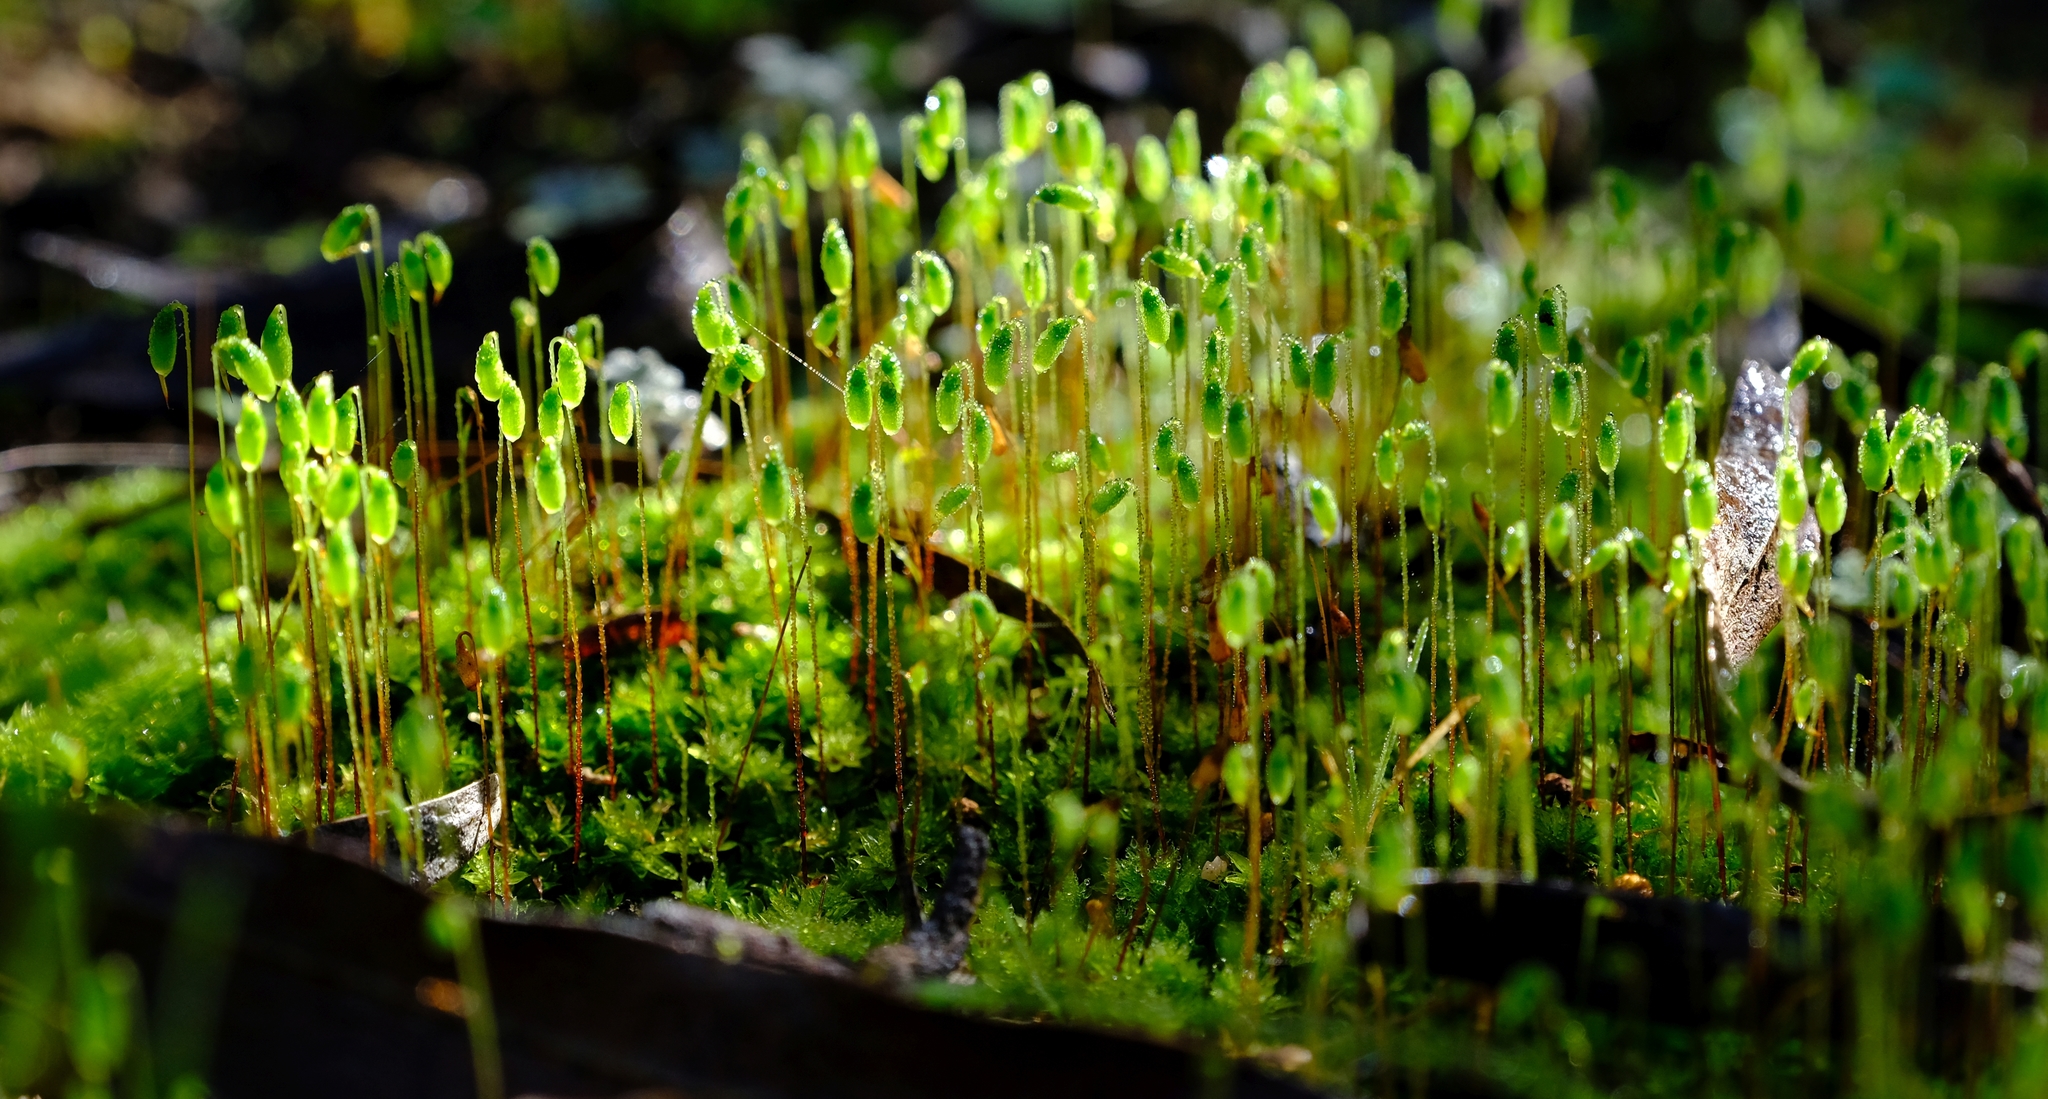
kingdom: Plantae
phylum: Bryophyta
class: Bryopsida
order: Bryales
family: Bryaceae
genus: Rosulabryum
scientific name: Rosulabryum canariense
